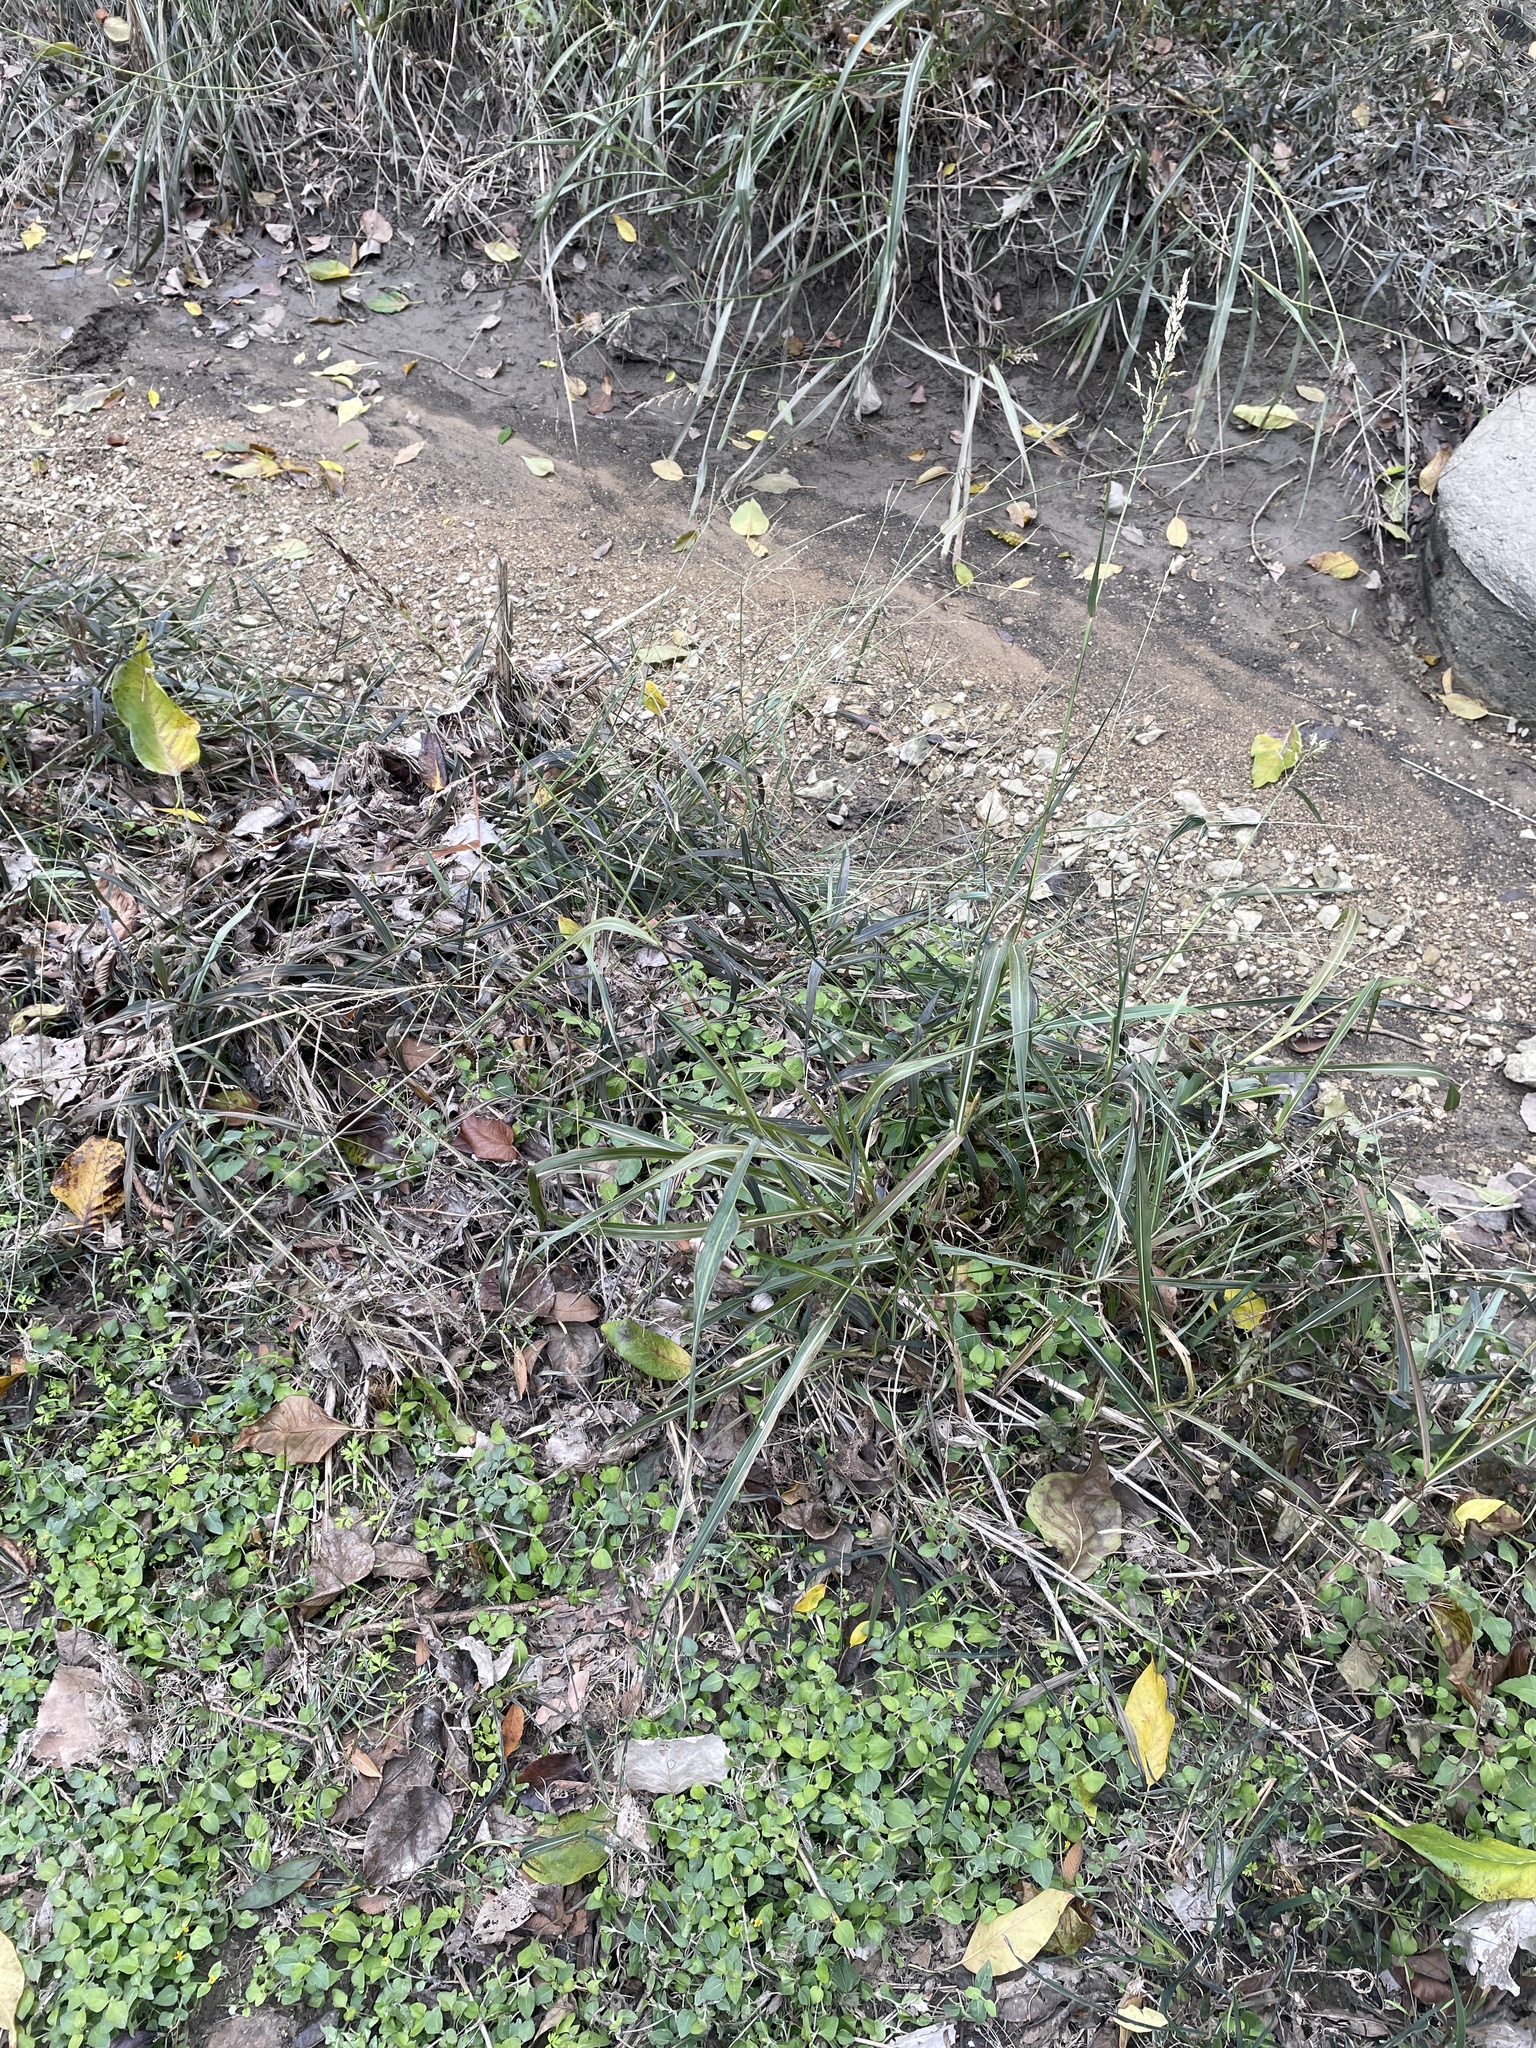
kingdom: Plantae
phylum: Tracheophyta
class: Liliopsida
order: Poales
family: Poaceae
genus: Sorghum
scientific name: Sorghum halepense
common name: Johnson-grass
